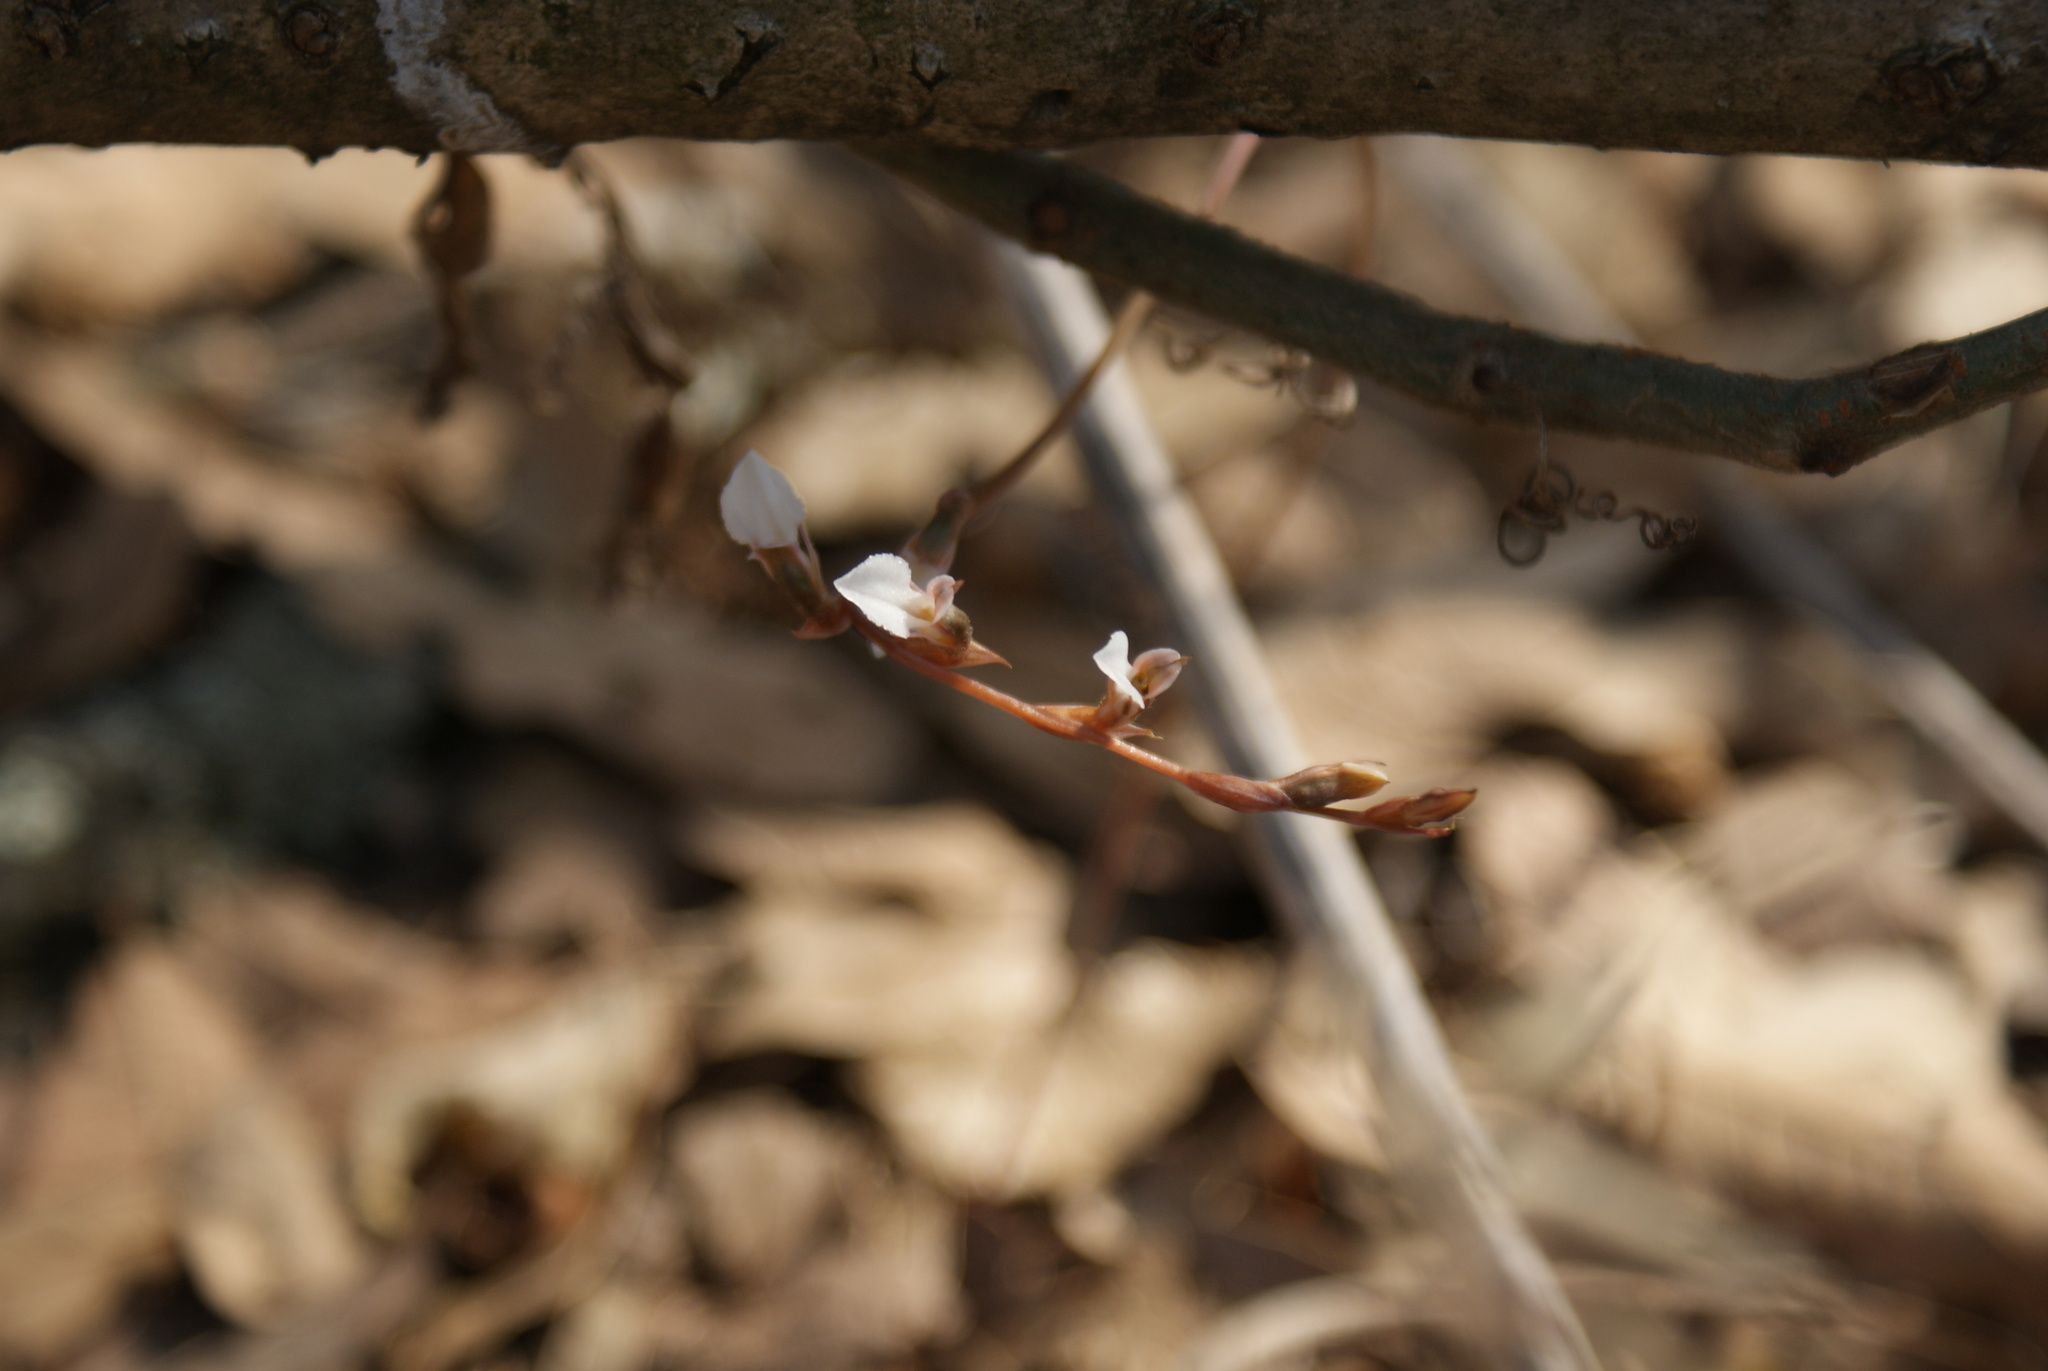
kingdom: Plantae
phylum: Tracheophyta
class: Liliopsida
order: Asparagales
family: Orchidaceae
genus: Greenwoodiella
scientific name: Greenwoodiella micrantha
